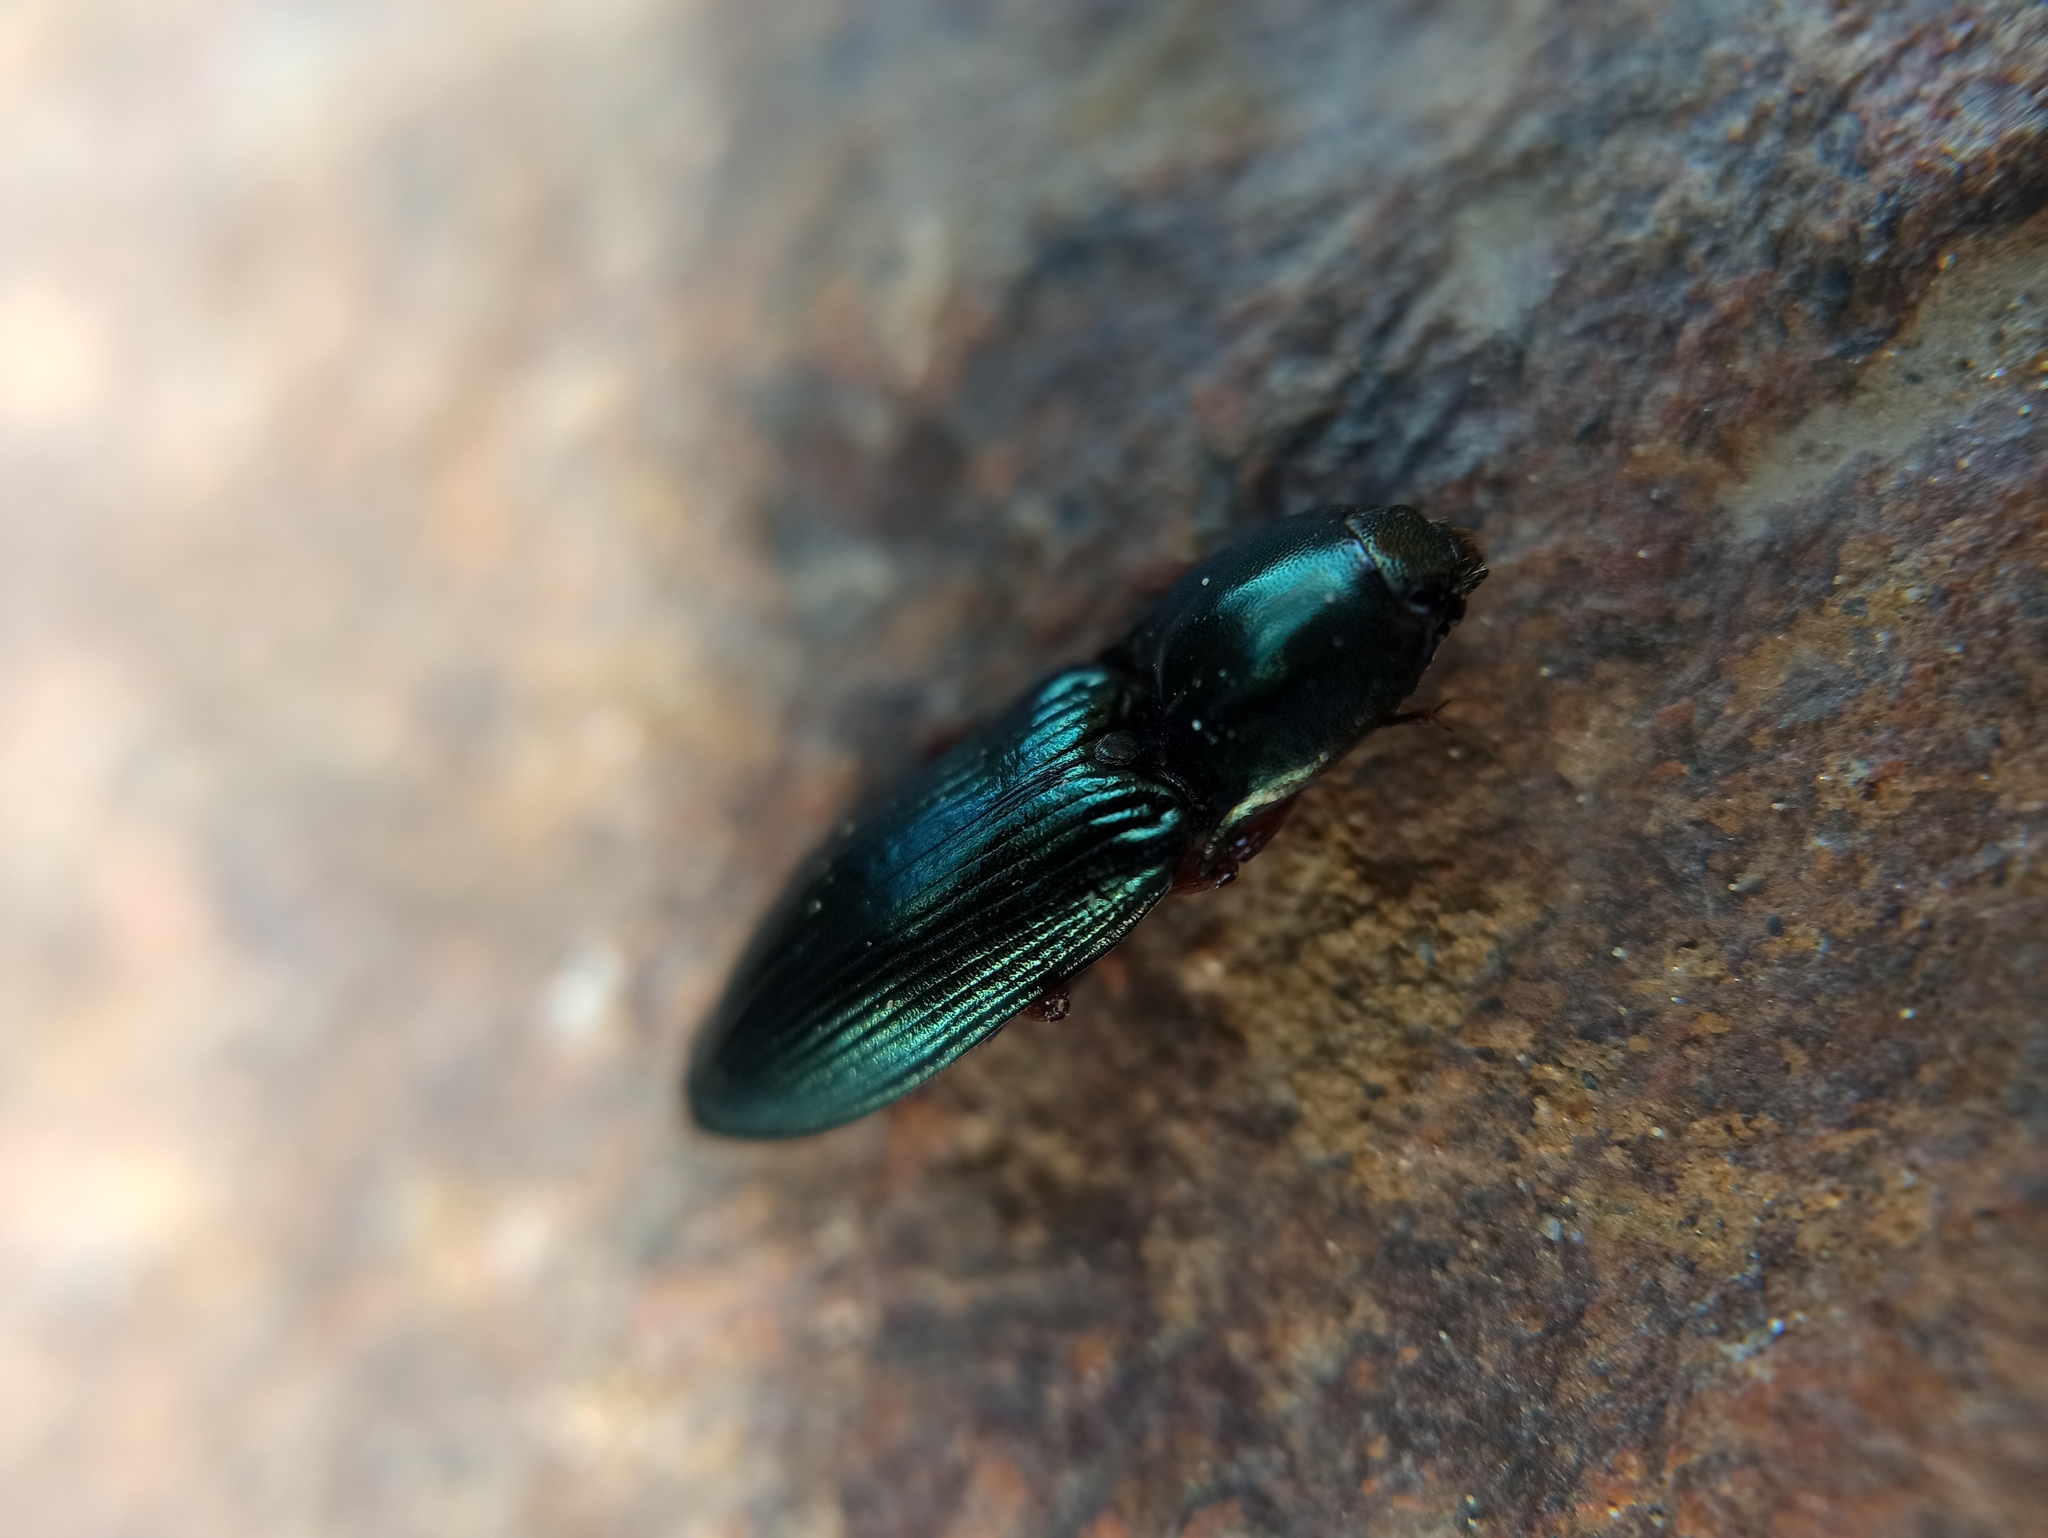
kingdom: Animalia
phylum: Arthropoda
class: Insecta
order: Coleoptera
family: Elateridae
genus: Selatosomus
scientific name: Selatosomus aeneus
